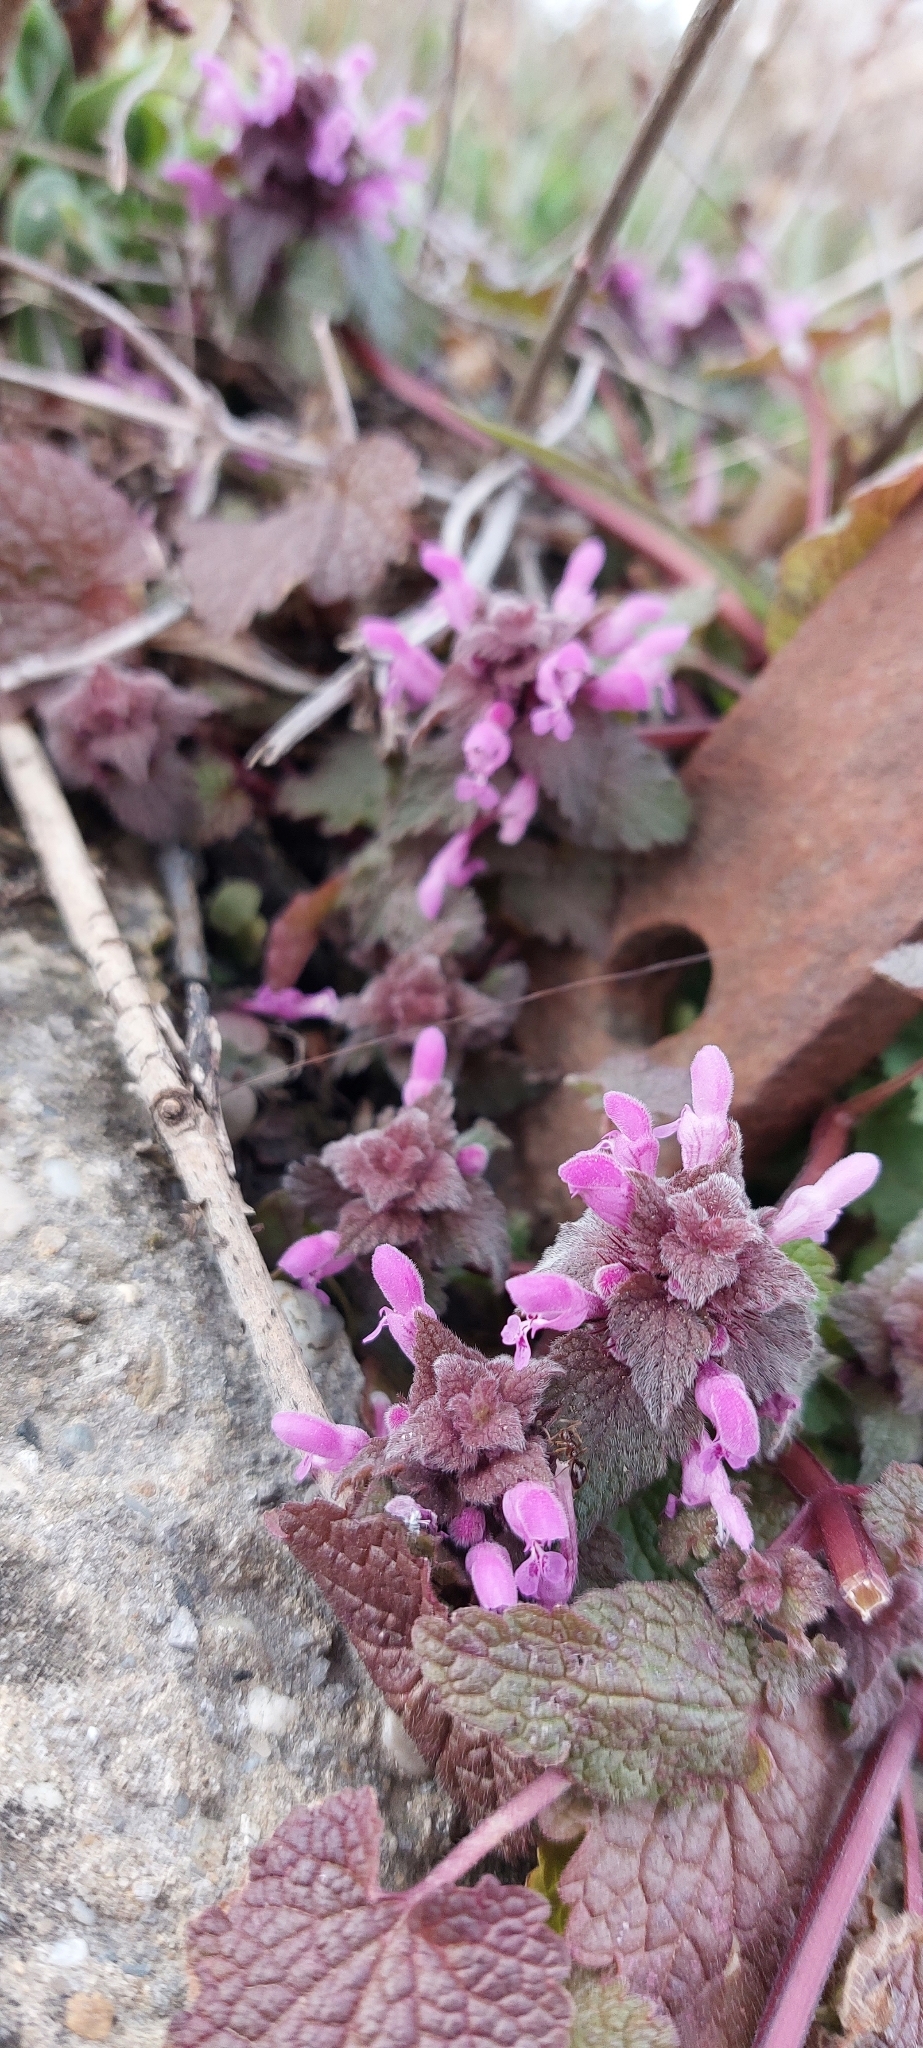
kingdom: Plantae
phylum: Tracheophyta
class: Magnoliopsida
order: Lamiales
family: Lamiaceae
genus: Lamium
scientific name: Lamium purpureum
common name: Red dead-nettle
